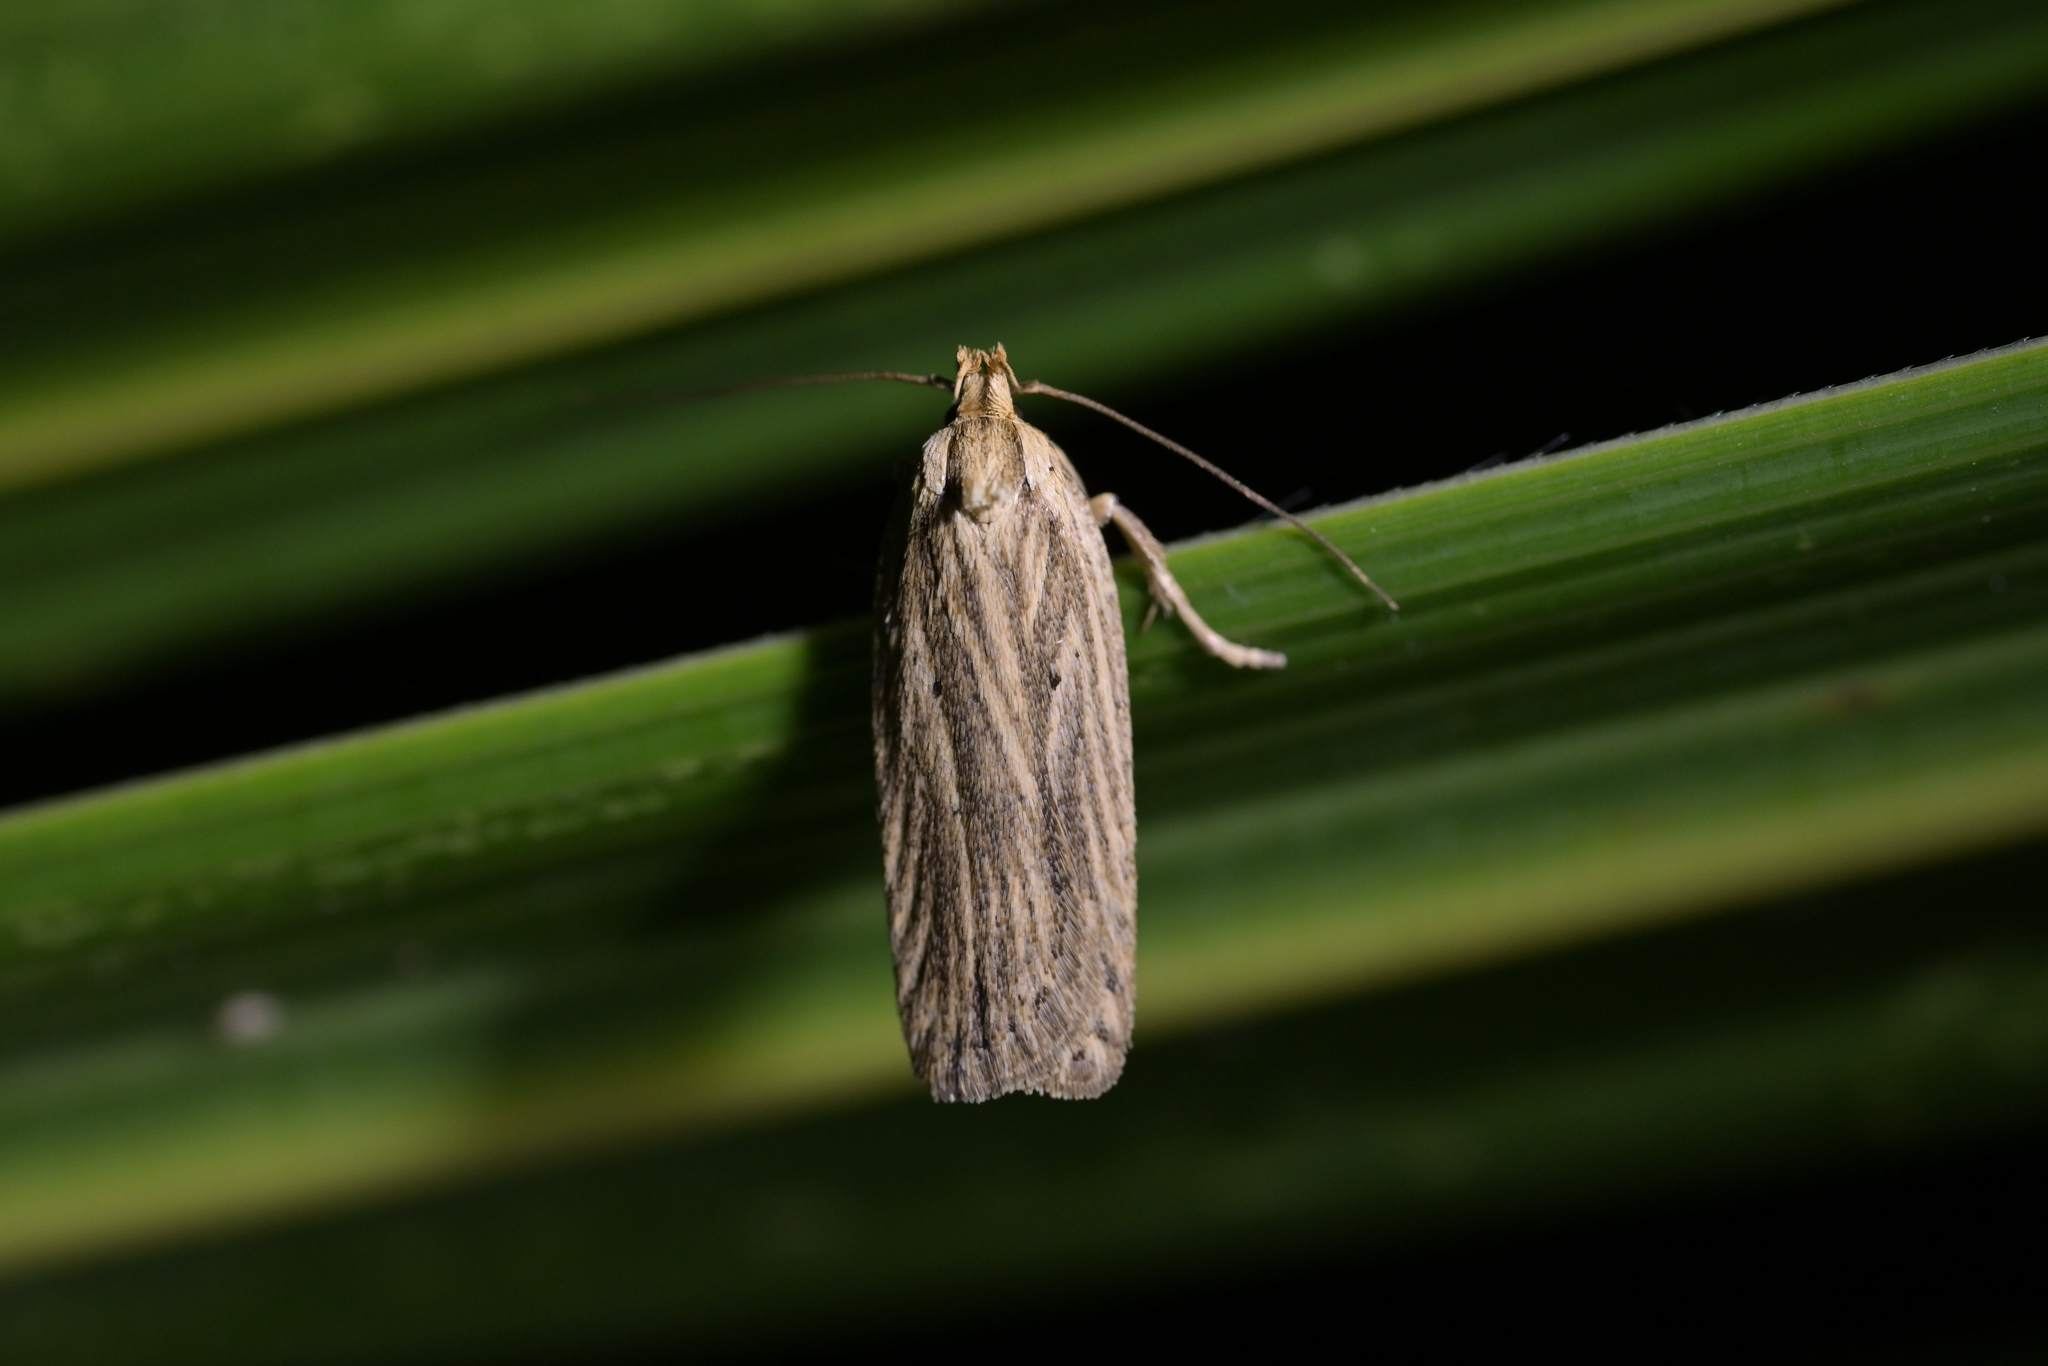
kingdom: Animalia
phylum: Arthropoda
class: Insecta
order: Lepidoptera
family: Depressariidae
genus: Agonopterix
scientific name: Agonopterix
